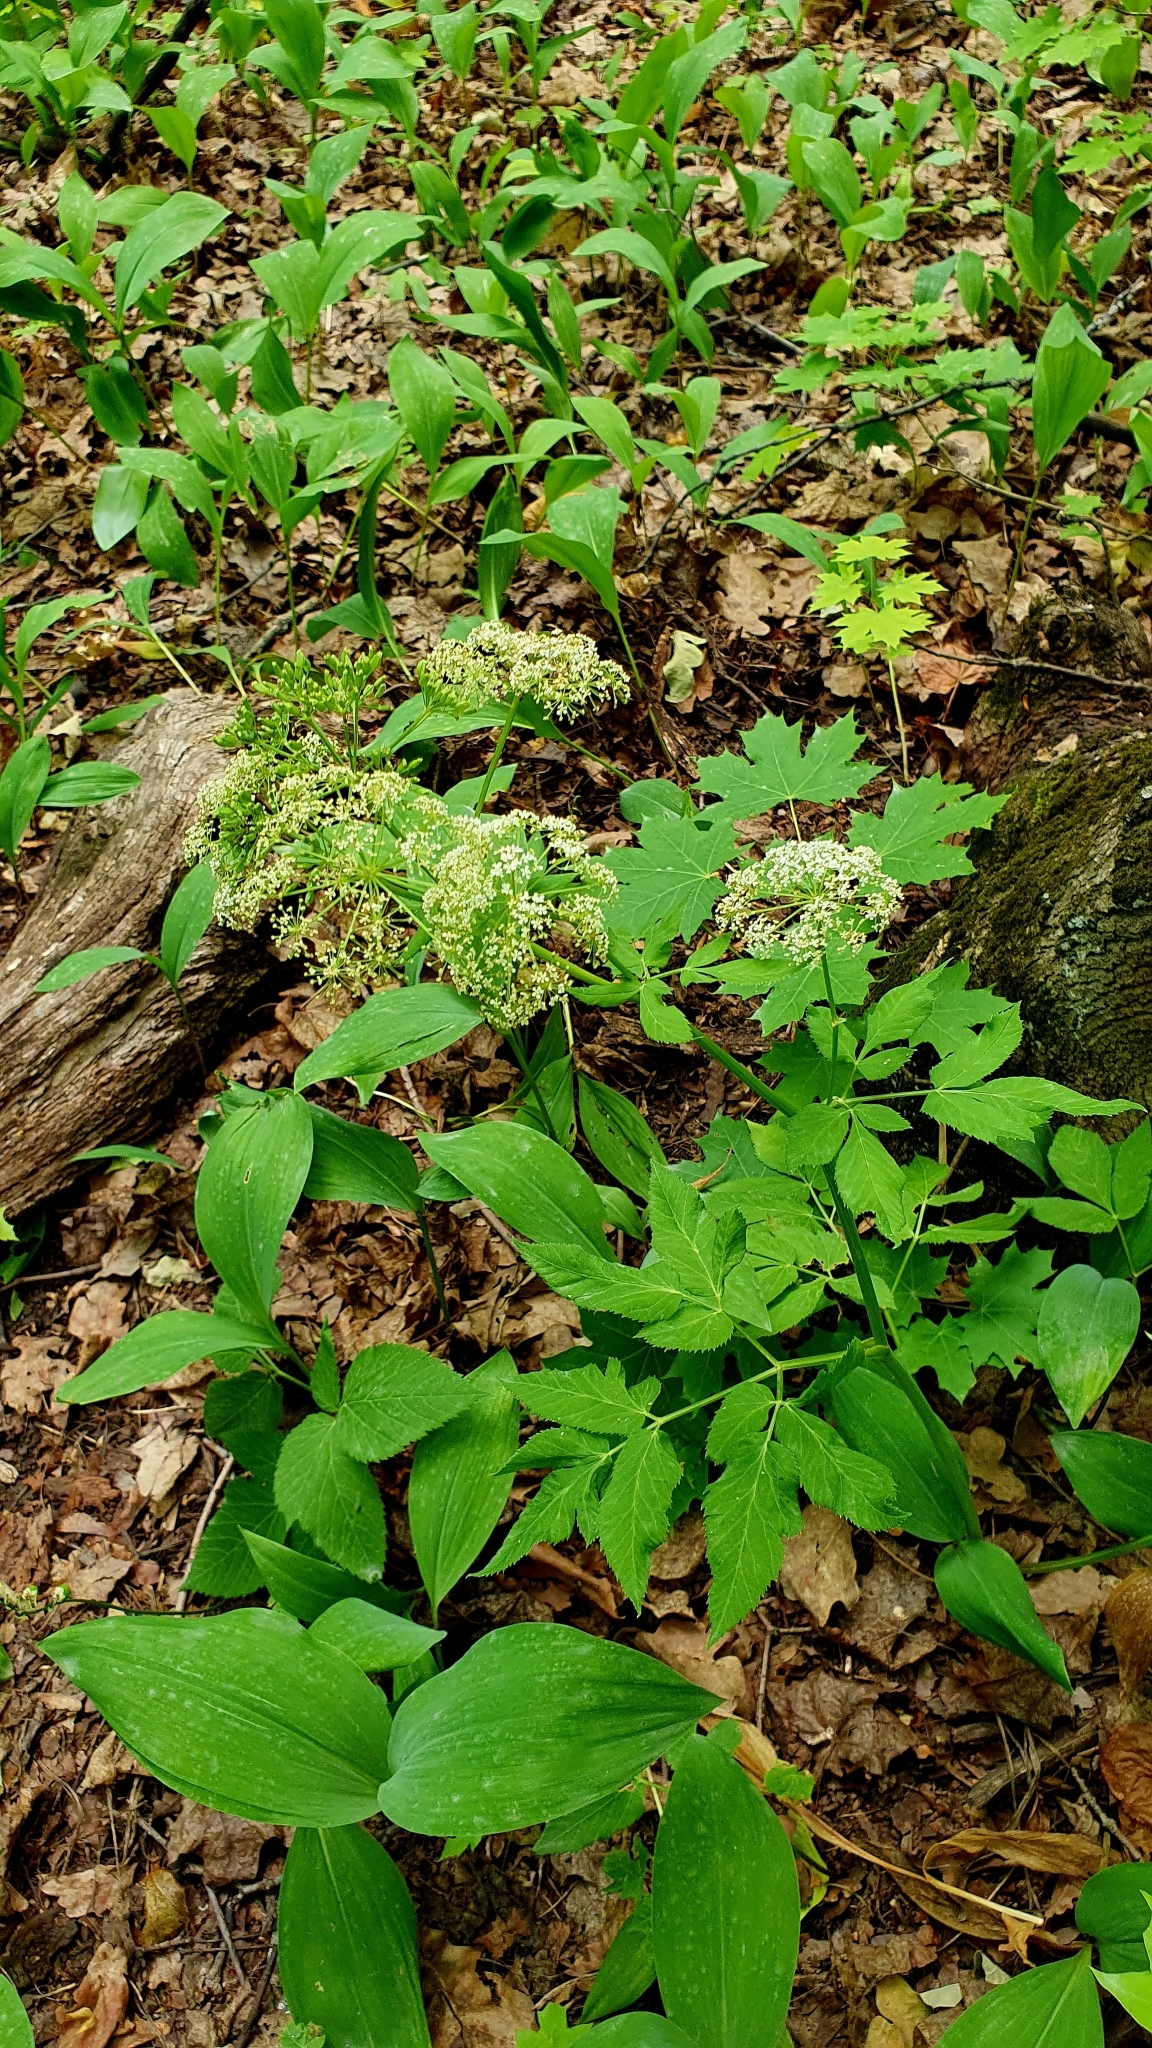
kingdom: Plantae
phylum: Tracheophyta
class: Magnoliopsida
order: Apiales
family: Apiaceae
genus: Aegopodium
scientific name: Aegopodium podagraria
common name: Ground-elder
